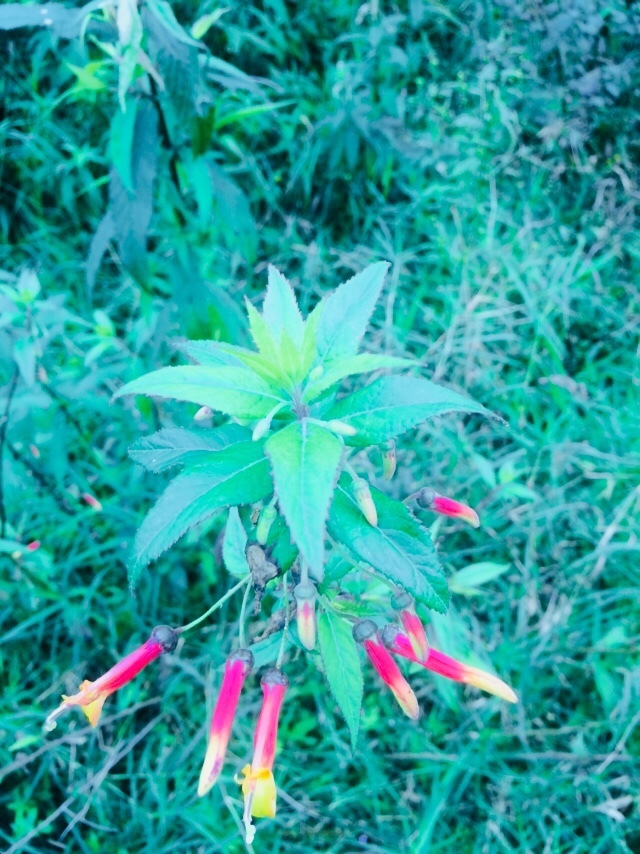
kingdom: Plantae
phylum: Tracheophyta
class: Magnoliopsida
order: Asterales
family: Campanulaceae
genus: Lobelia
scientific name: Lobelia laxiflora
